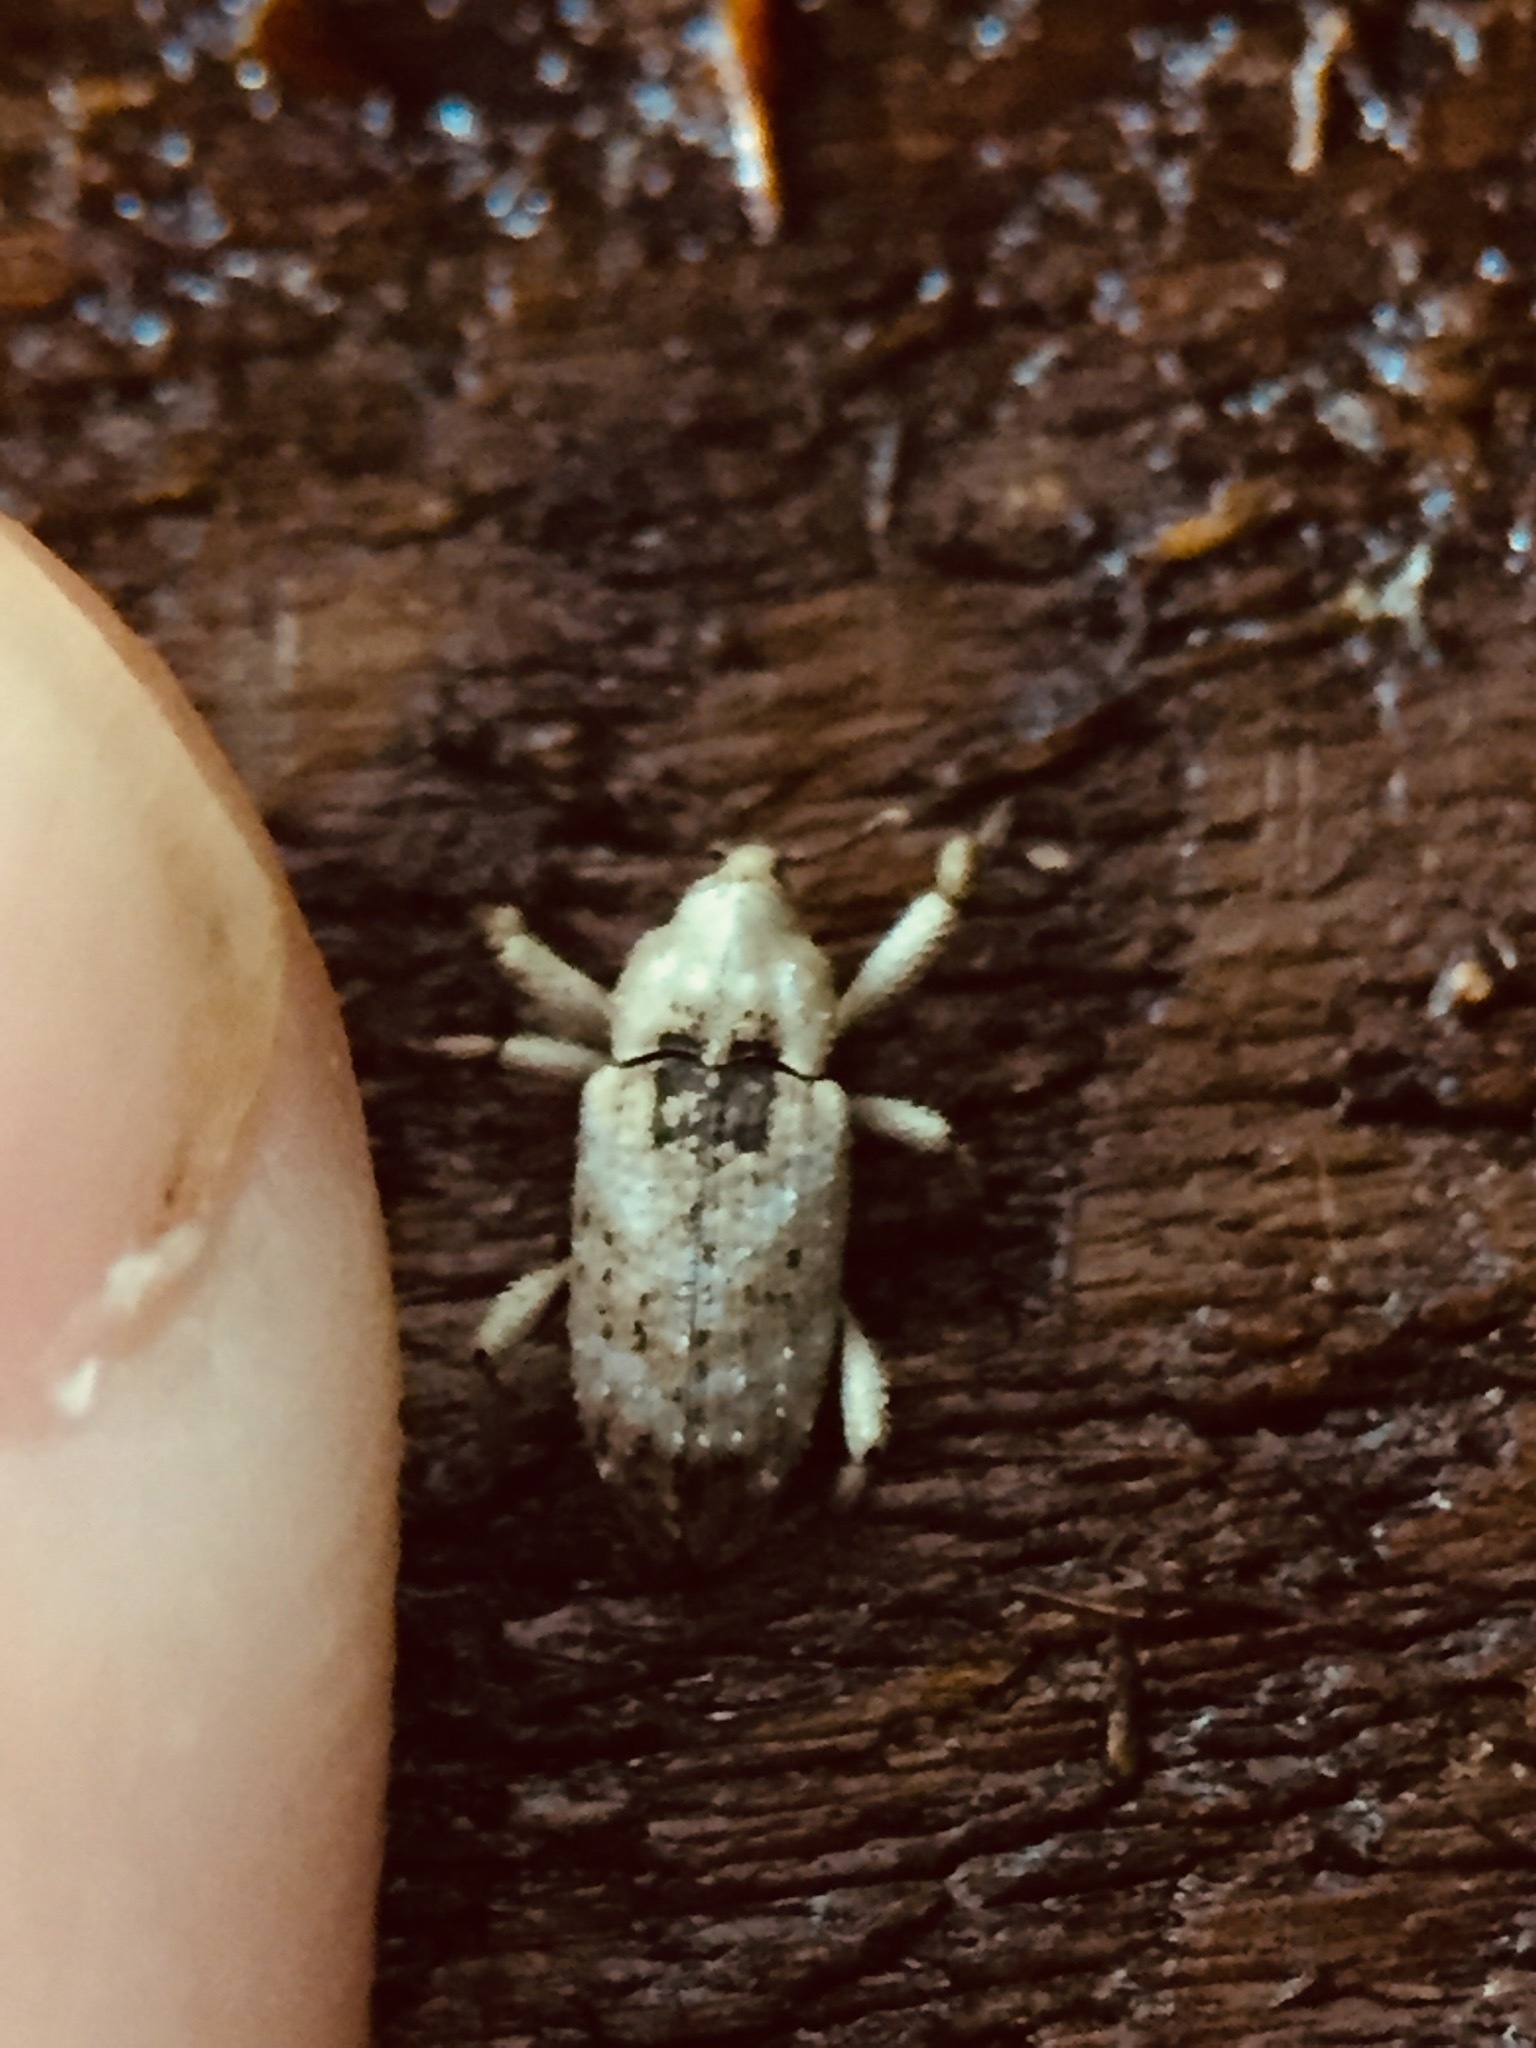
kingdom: Animalia
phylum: Arthropoda
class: Insecta
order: Coleoptera
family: Curculionidae
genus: Mitrastethus
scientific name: Mitrastethus baridioides
